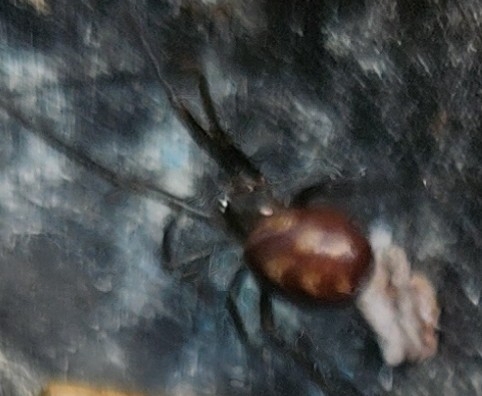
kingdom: Animalia
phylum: Arthropoda
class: Arachnida
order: Araneae
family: Theridiidae
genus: Steatoda
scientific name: Steatoda grossa
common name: False black widow
